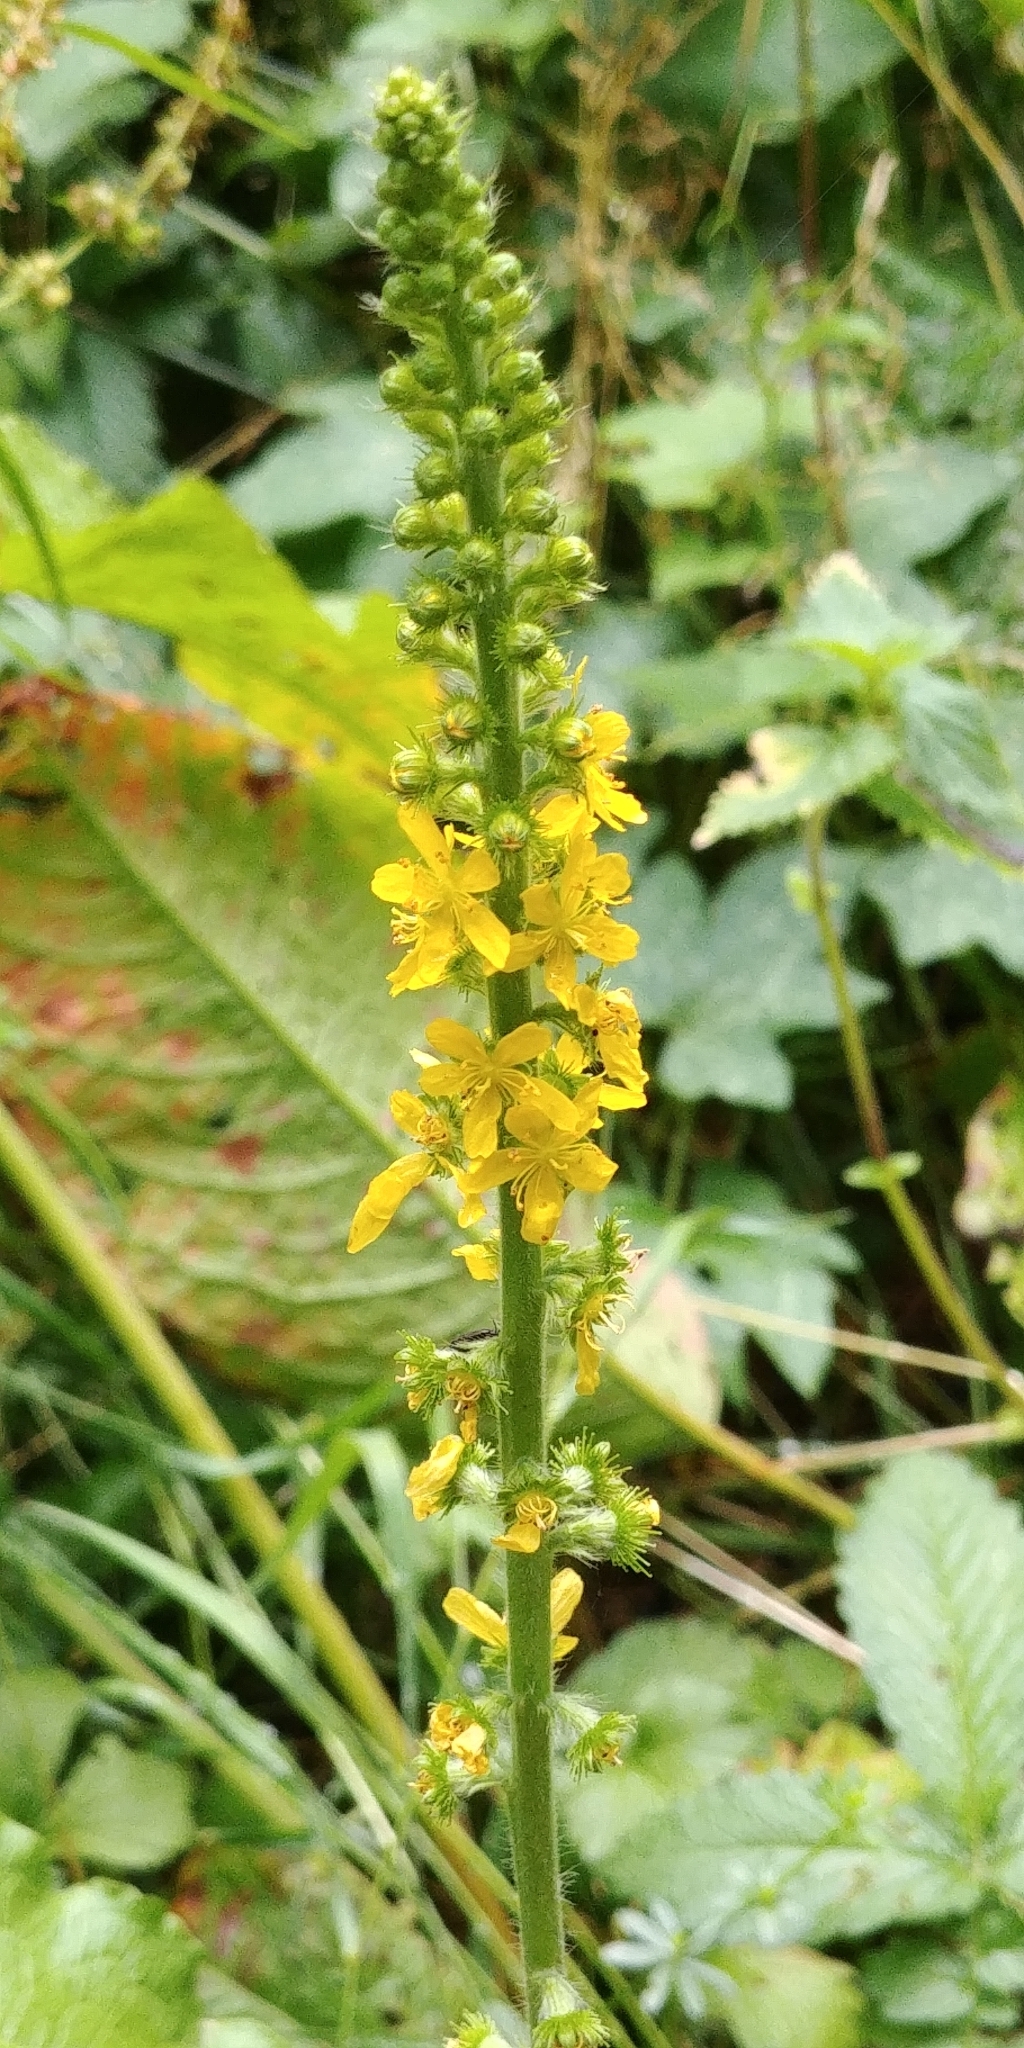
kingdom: Plantae
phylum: Tracheophyta
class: Magnoliopsida
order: Rosales
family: Rosaceae
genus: Agrimonia
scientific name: Agrimonia eupatoria
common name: Agrimony
